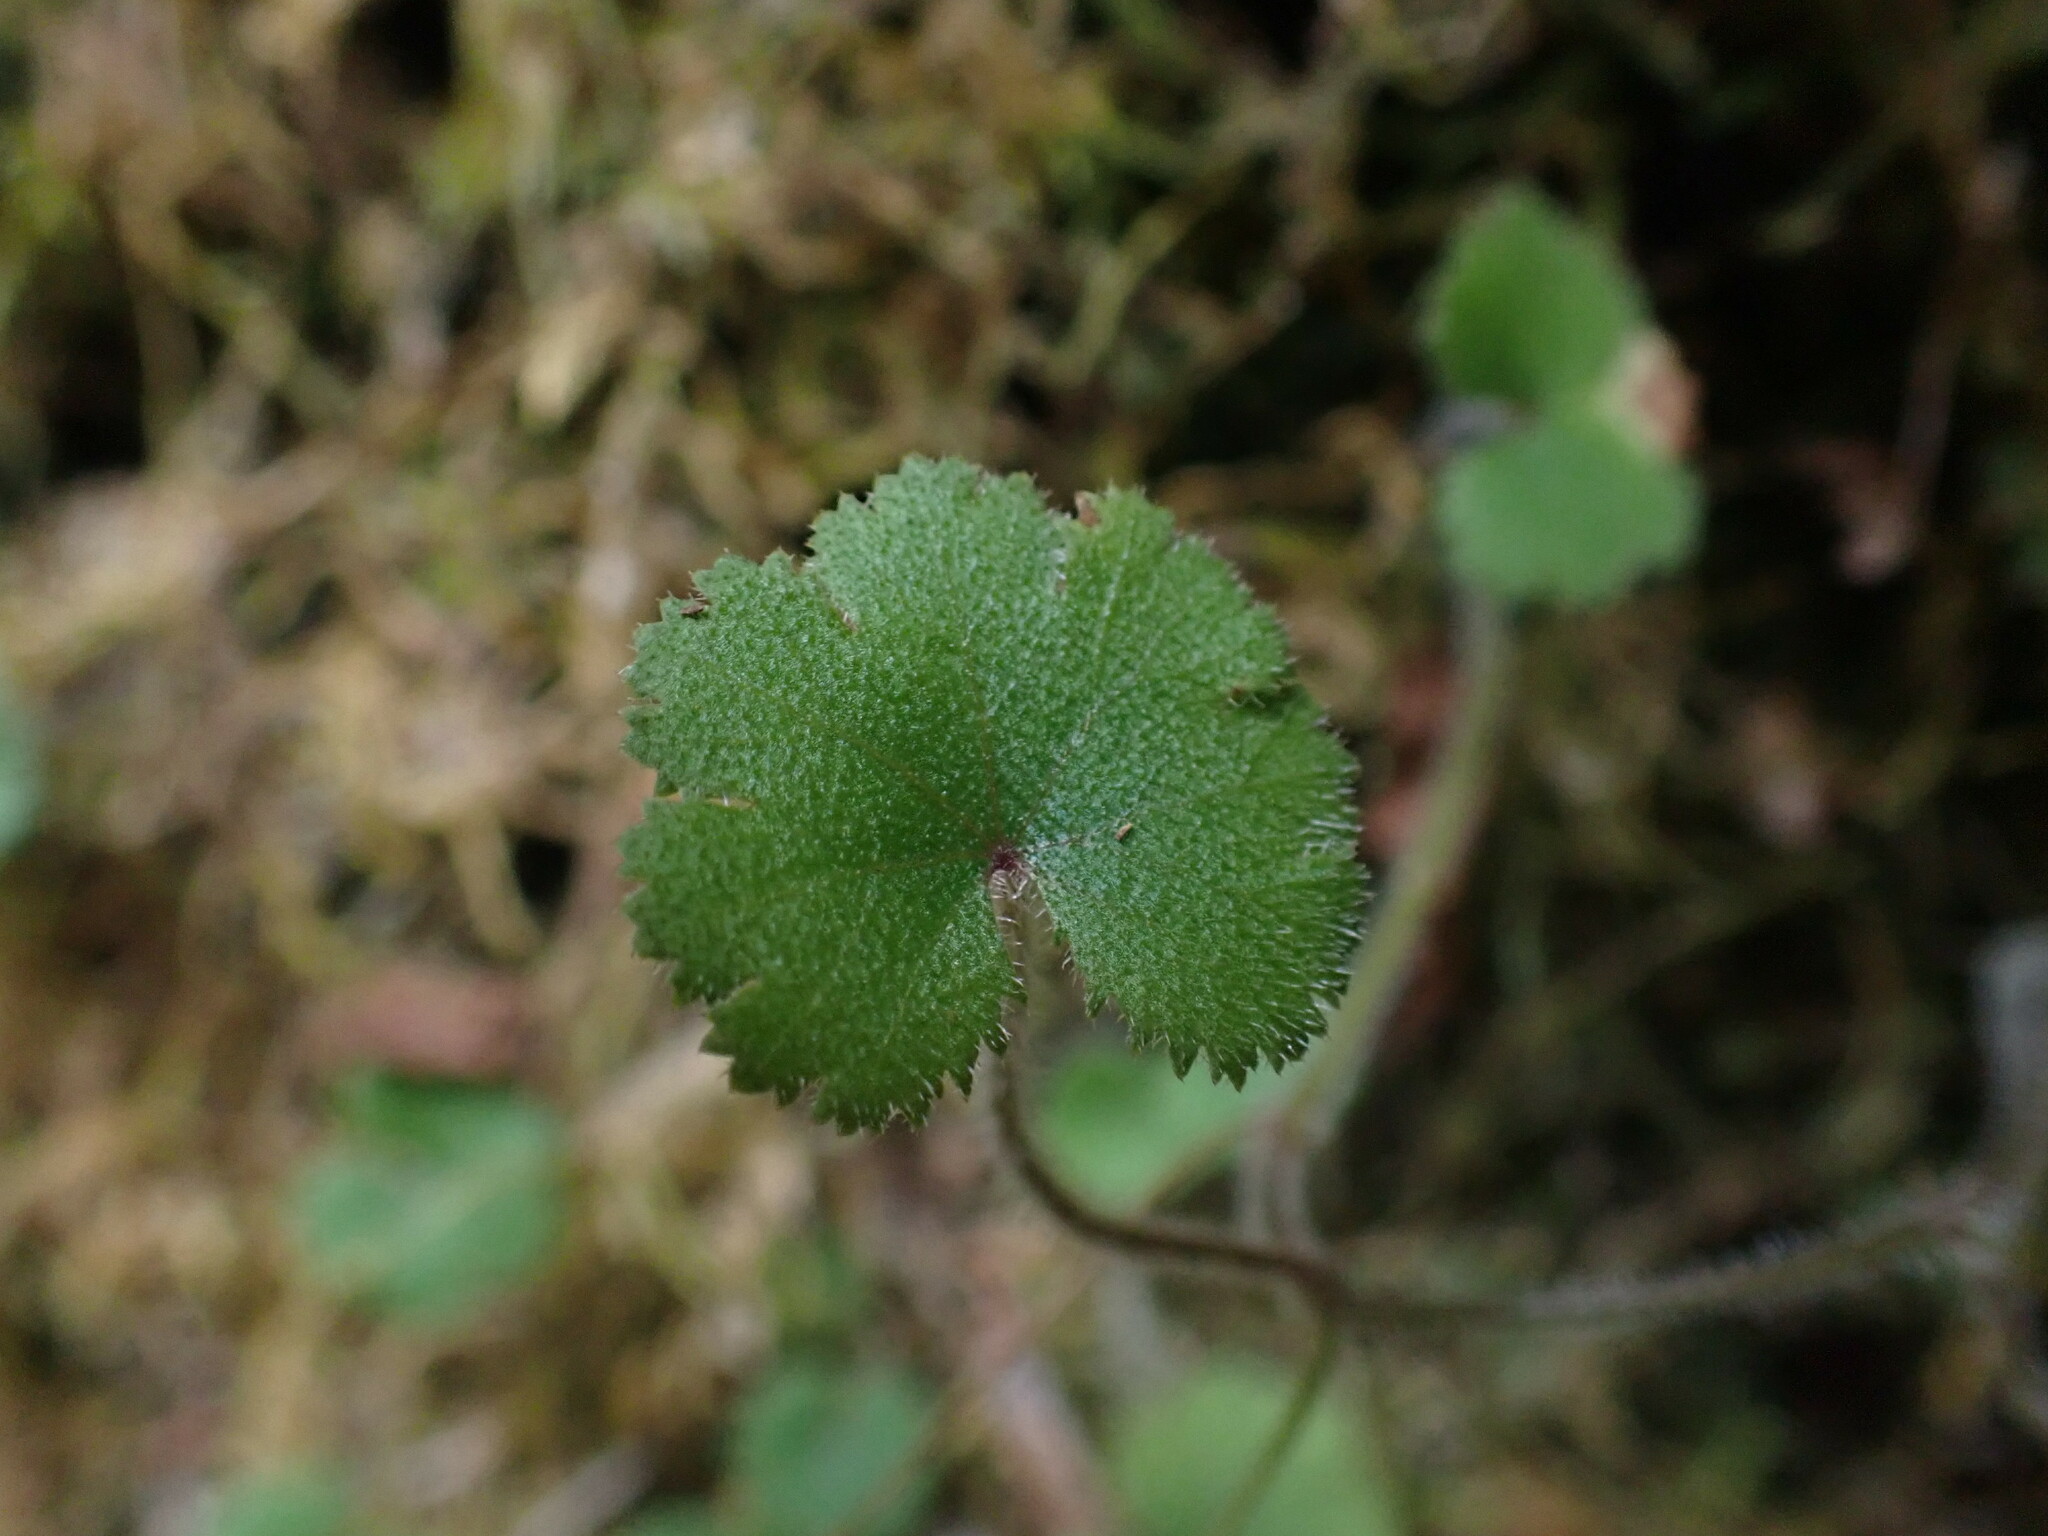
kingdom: Plantae
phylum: Tracheophyta
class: Magnoliopsida
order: Apiales
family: Araliaceae
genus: Hydrocotyle
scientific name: Hydrocotyle moschata
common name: Hairy pennywort
